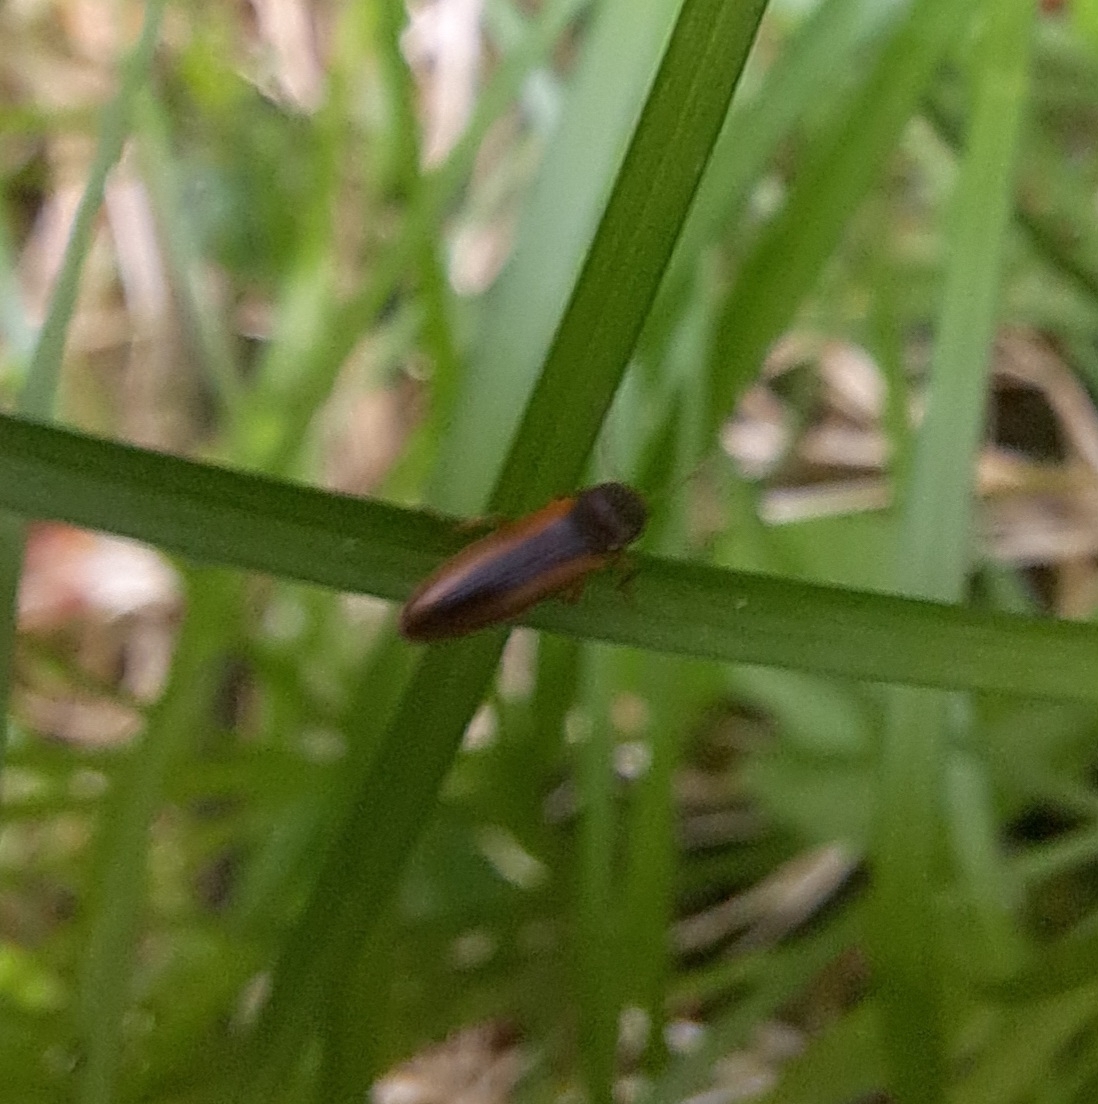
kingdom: Animalia
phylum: Arthropoda
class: Insecta
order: Coleoptera
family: Elateridae
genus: Dalopius
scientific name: Dalopius marginatus
